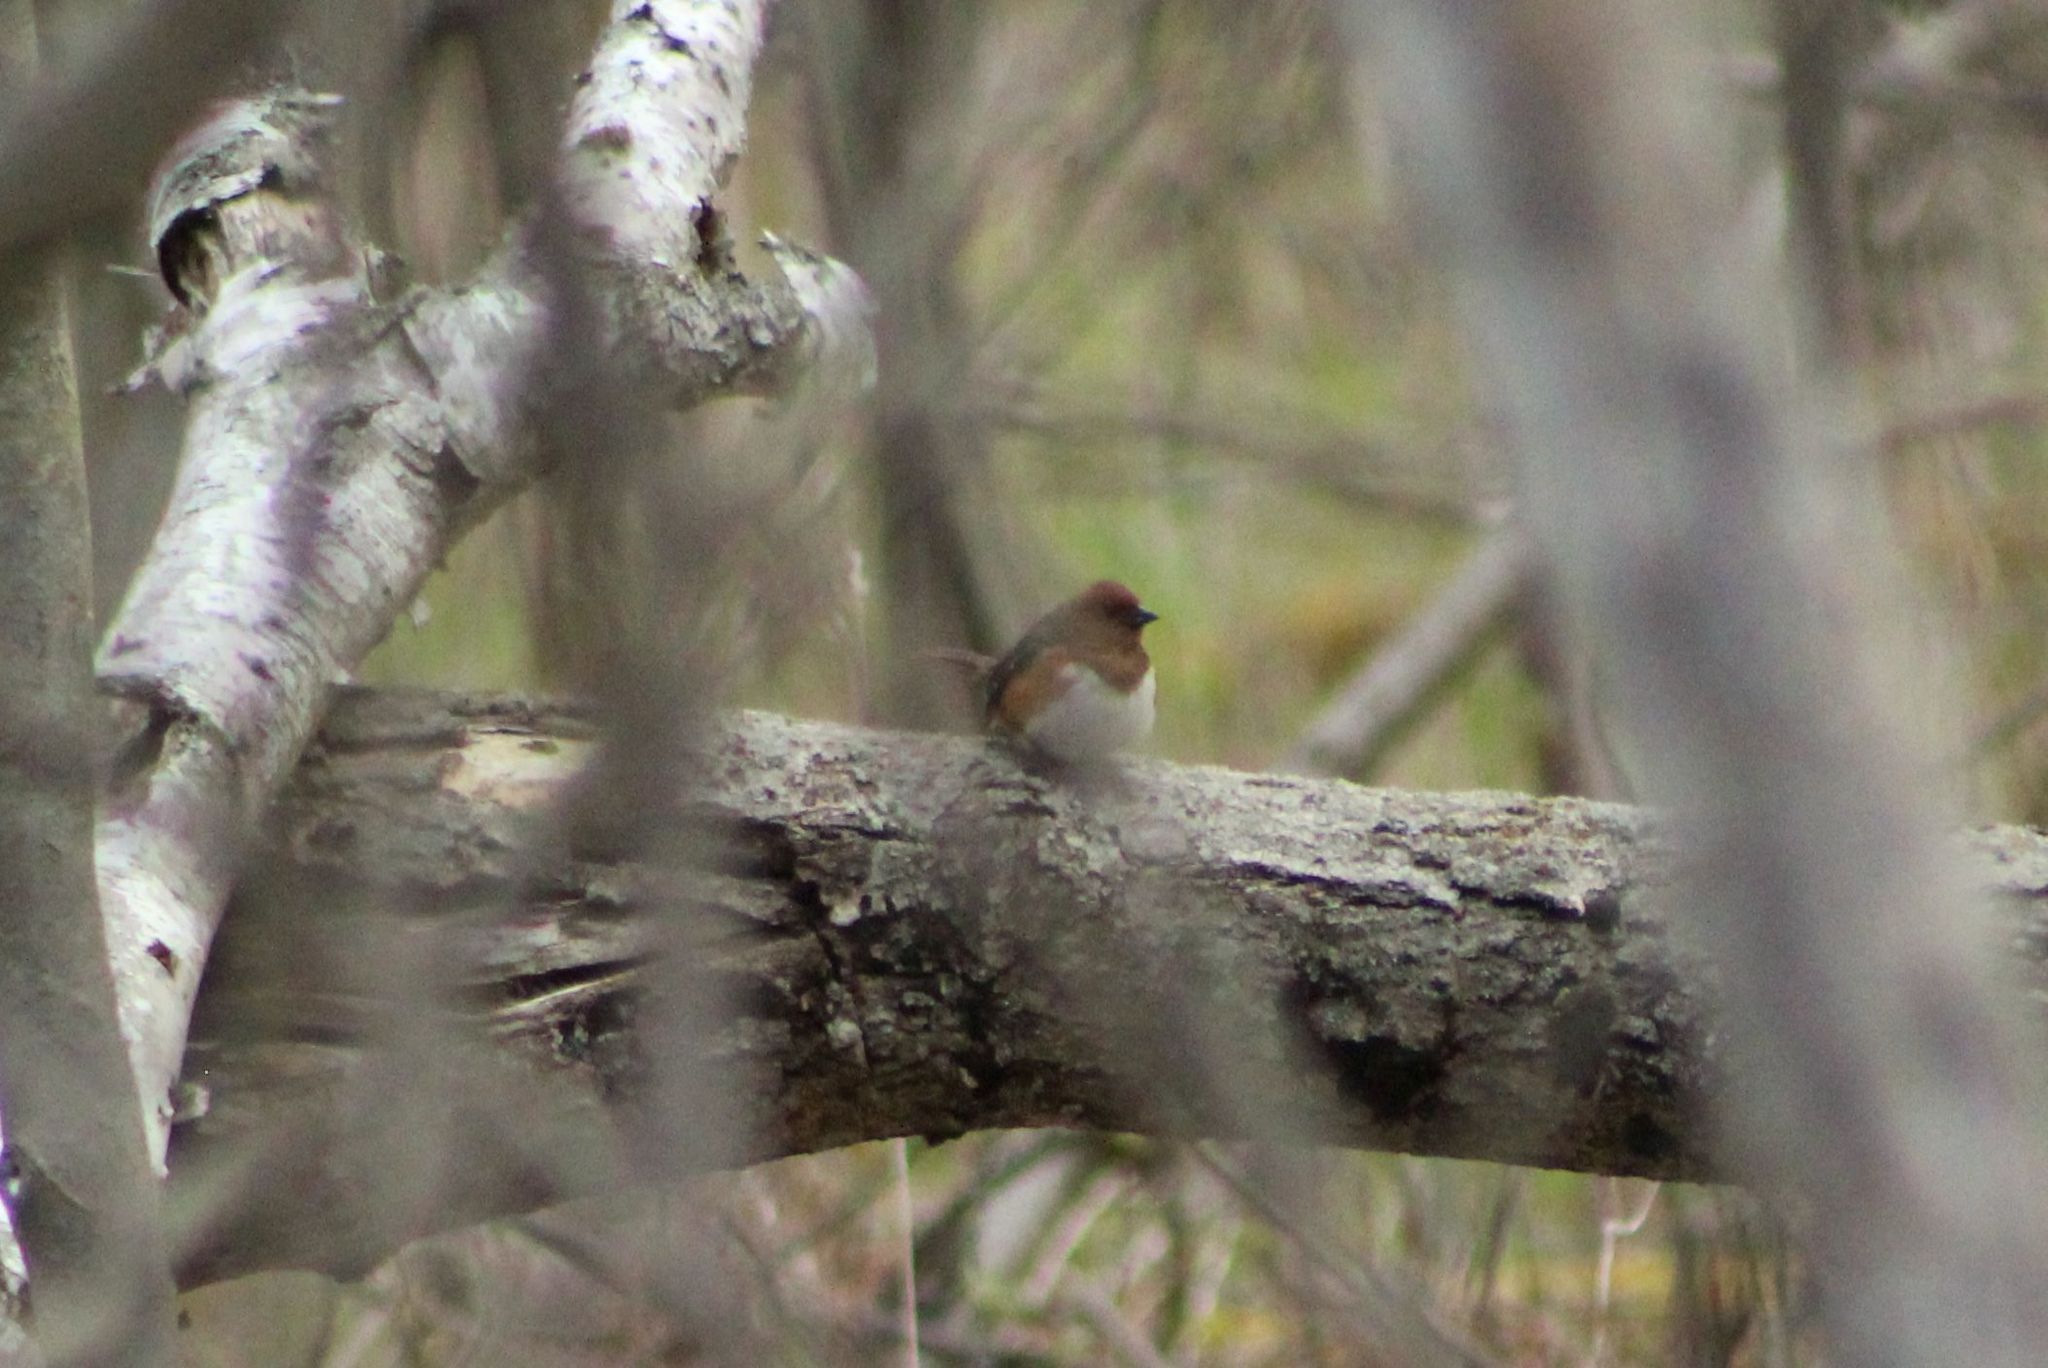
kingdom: Animalia
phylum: Chordata
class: Aves
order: Passeriformes
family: Passerellidae
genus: Pipilo
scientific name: Pipilo erythrophthalmus
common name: Eastern towhee
